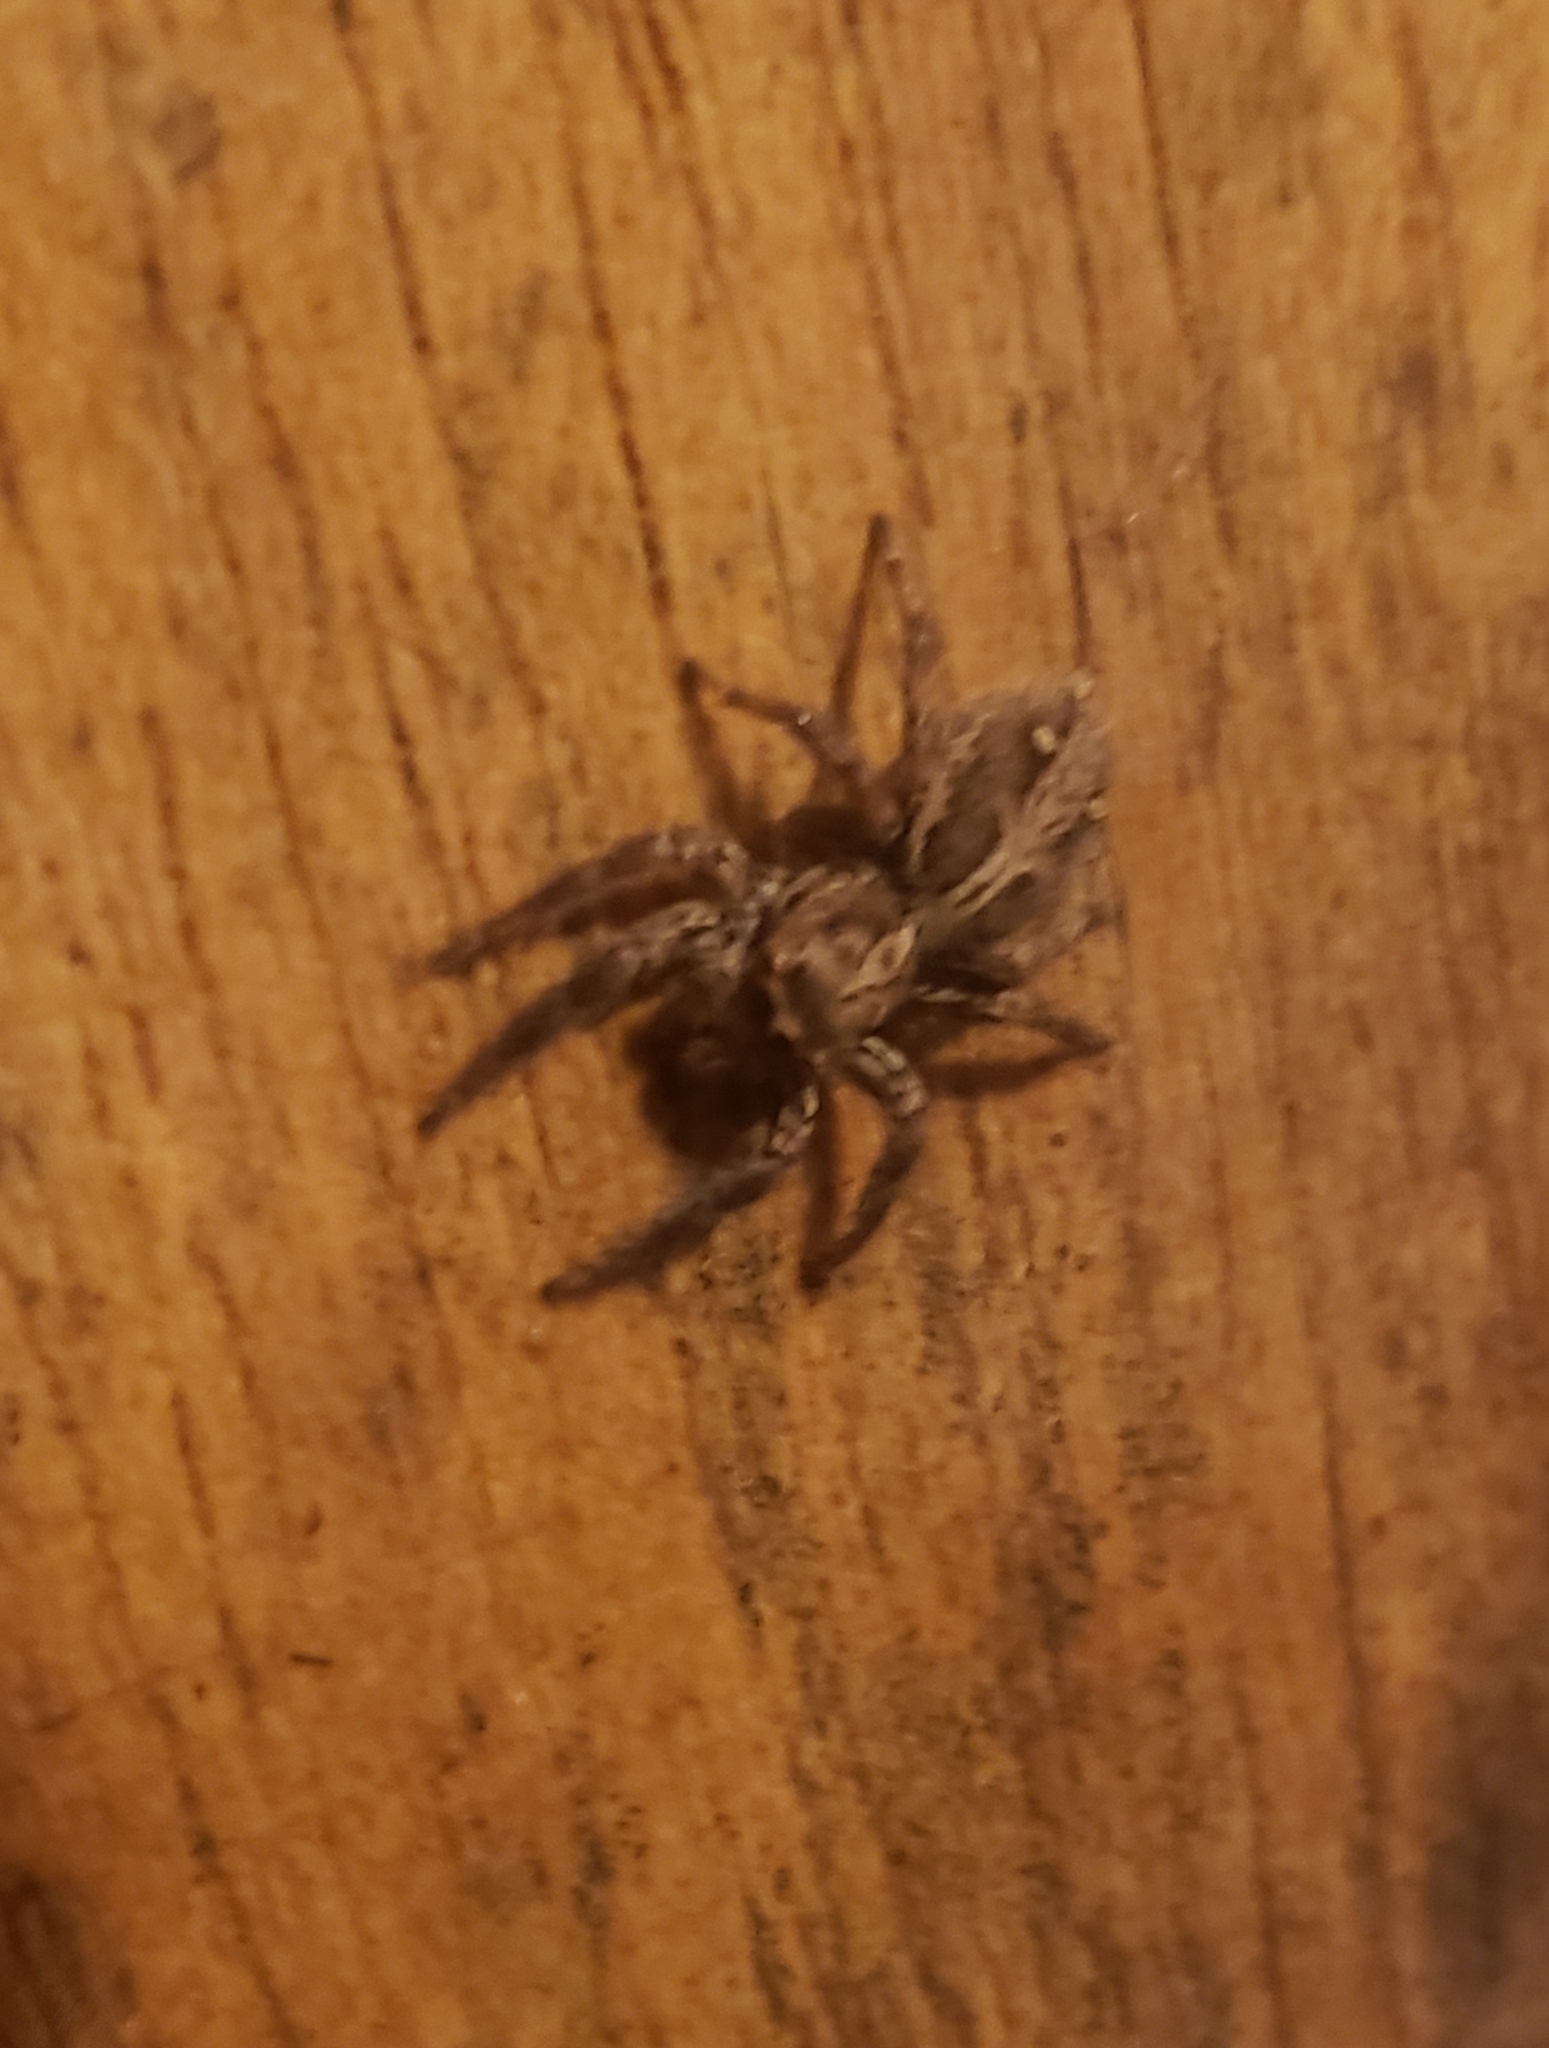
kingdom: Animalia
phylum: Arthropoda
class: Arachnida
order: Araneae
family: Salticidae
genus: Plexippus
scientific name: Plexippus paykulli
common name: Pantropical jumper
